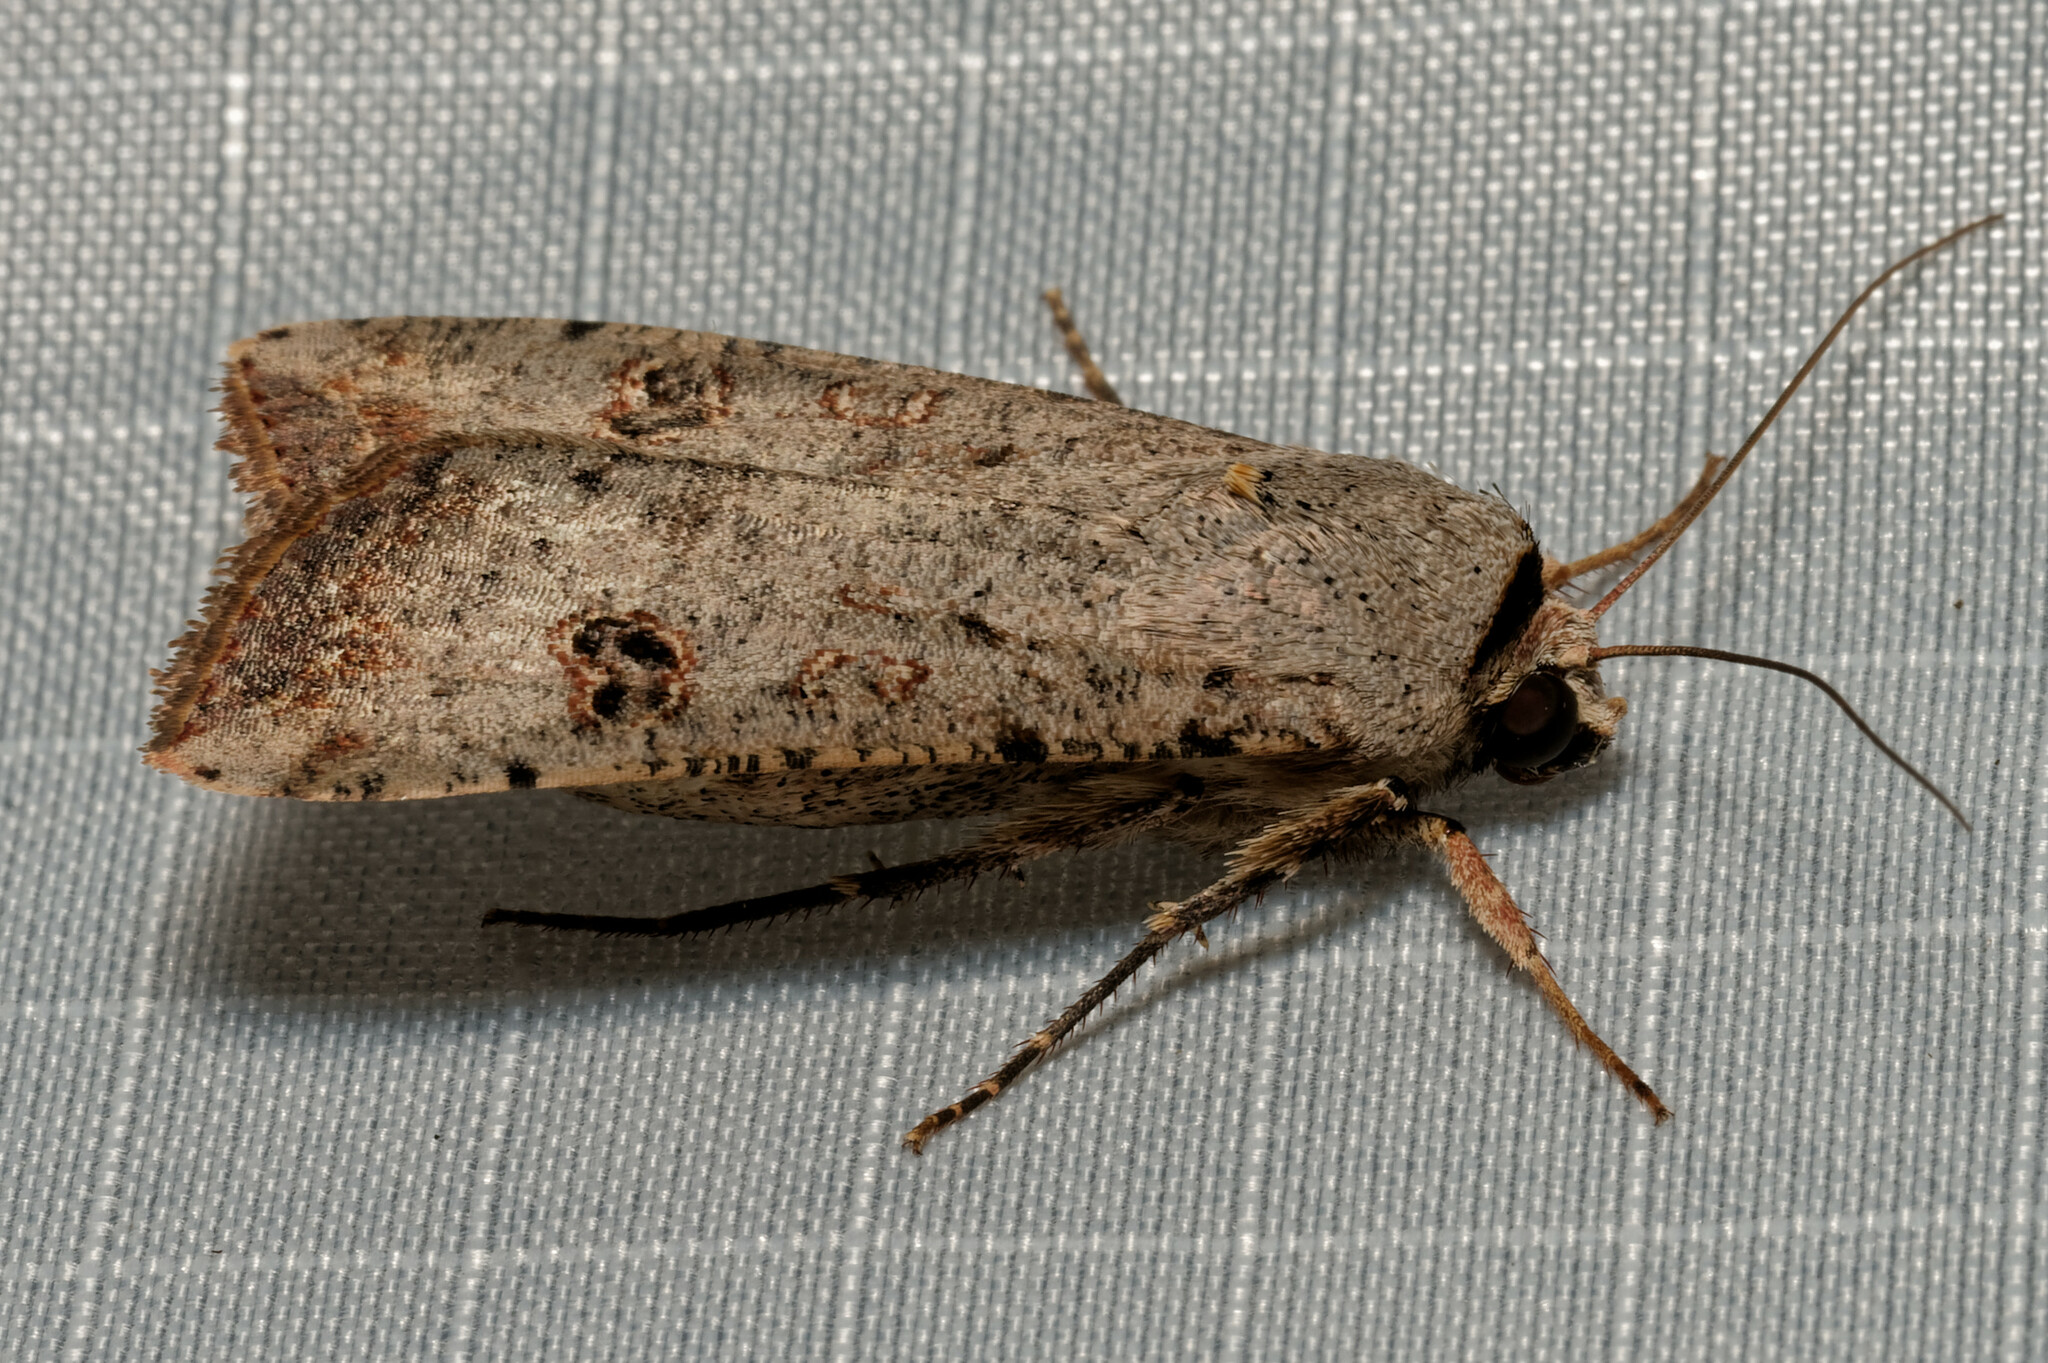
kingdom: Animalia
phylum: Arthropoda
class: Insecta
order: Lepidoptera
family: Noctuidae
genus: Anicla
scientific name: Anicla infecta
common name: Green cutworm
